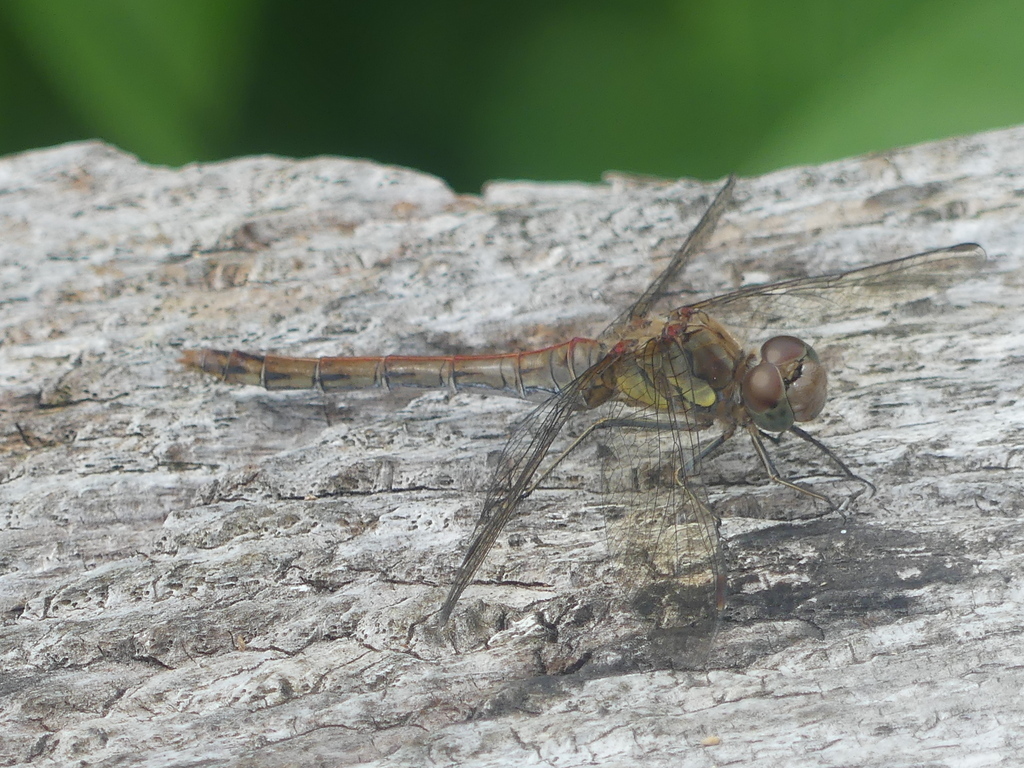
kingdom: Animalia
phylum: Arthropoda
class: Insecta
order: Odonata
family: Libellulidae
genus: Sympetrum
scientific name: Sympetrum striolatum
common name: Common darter
